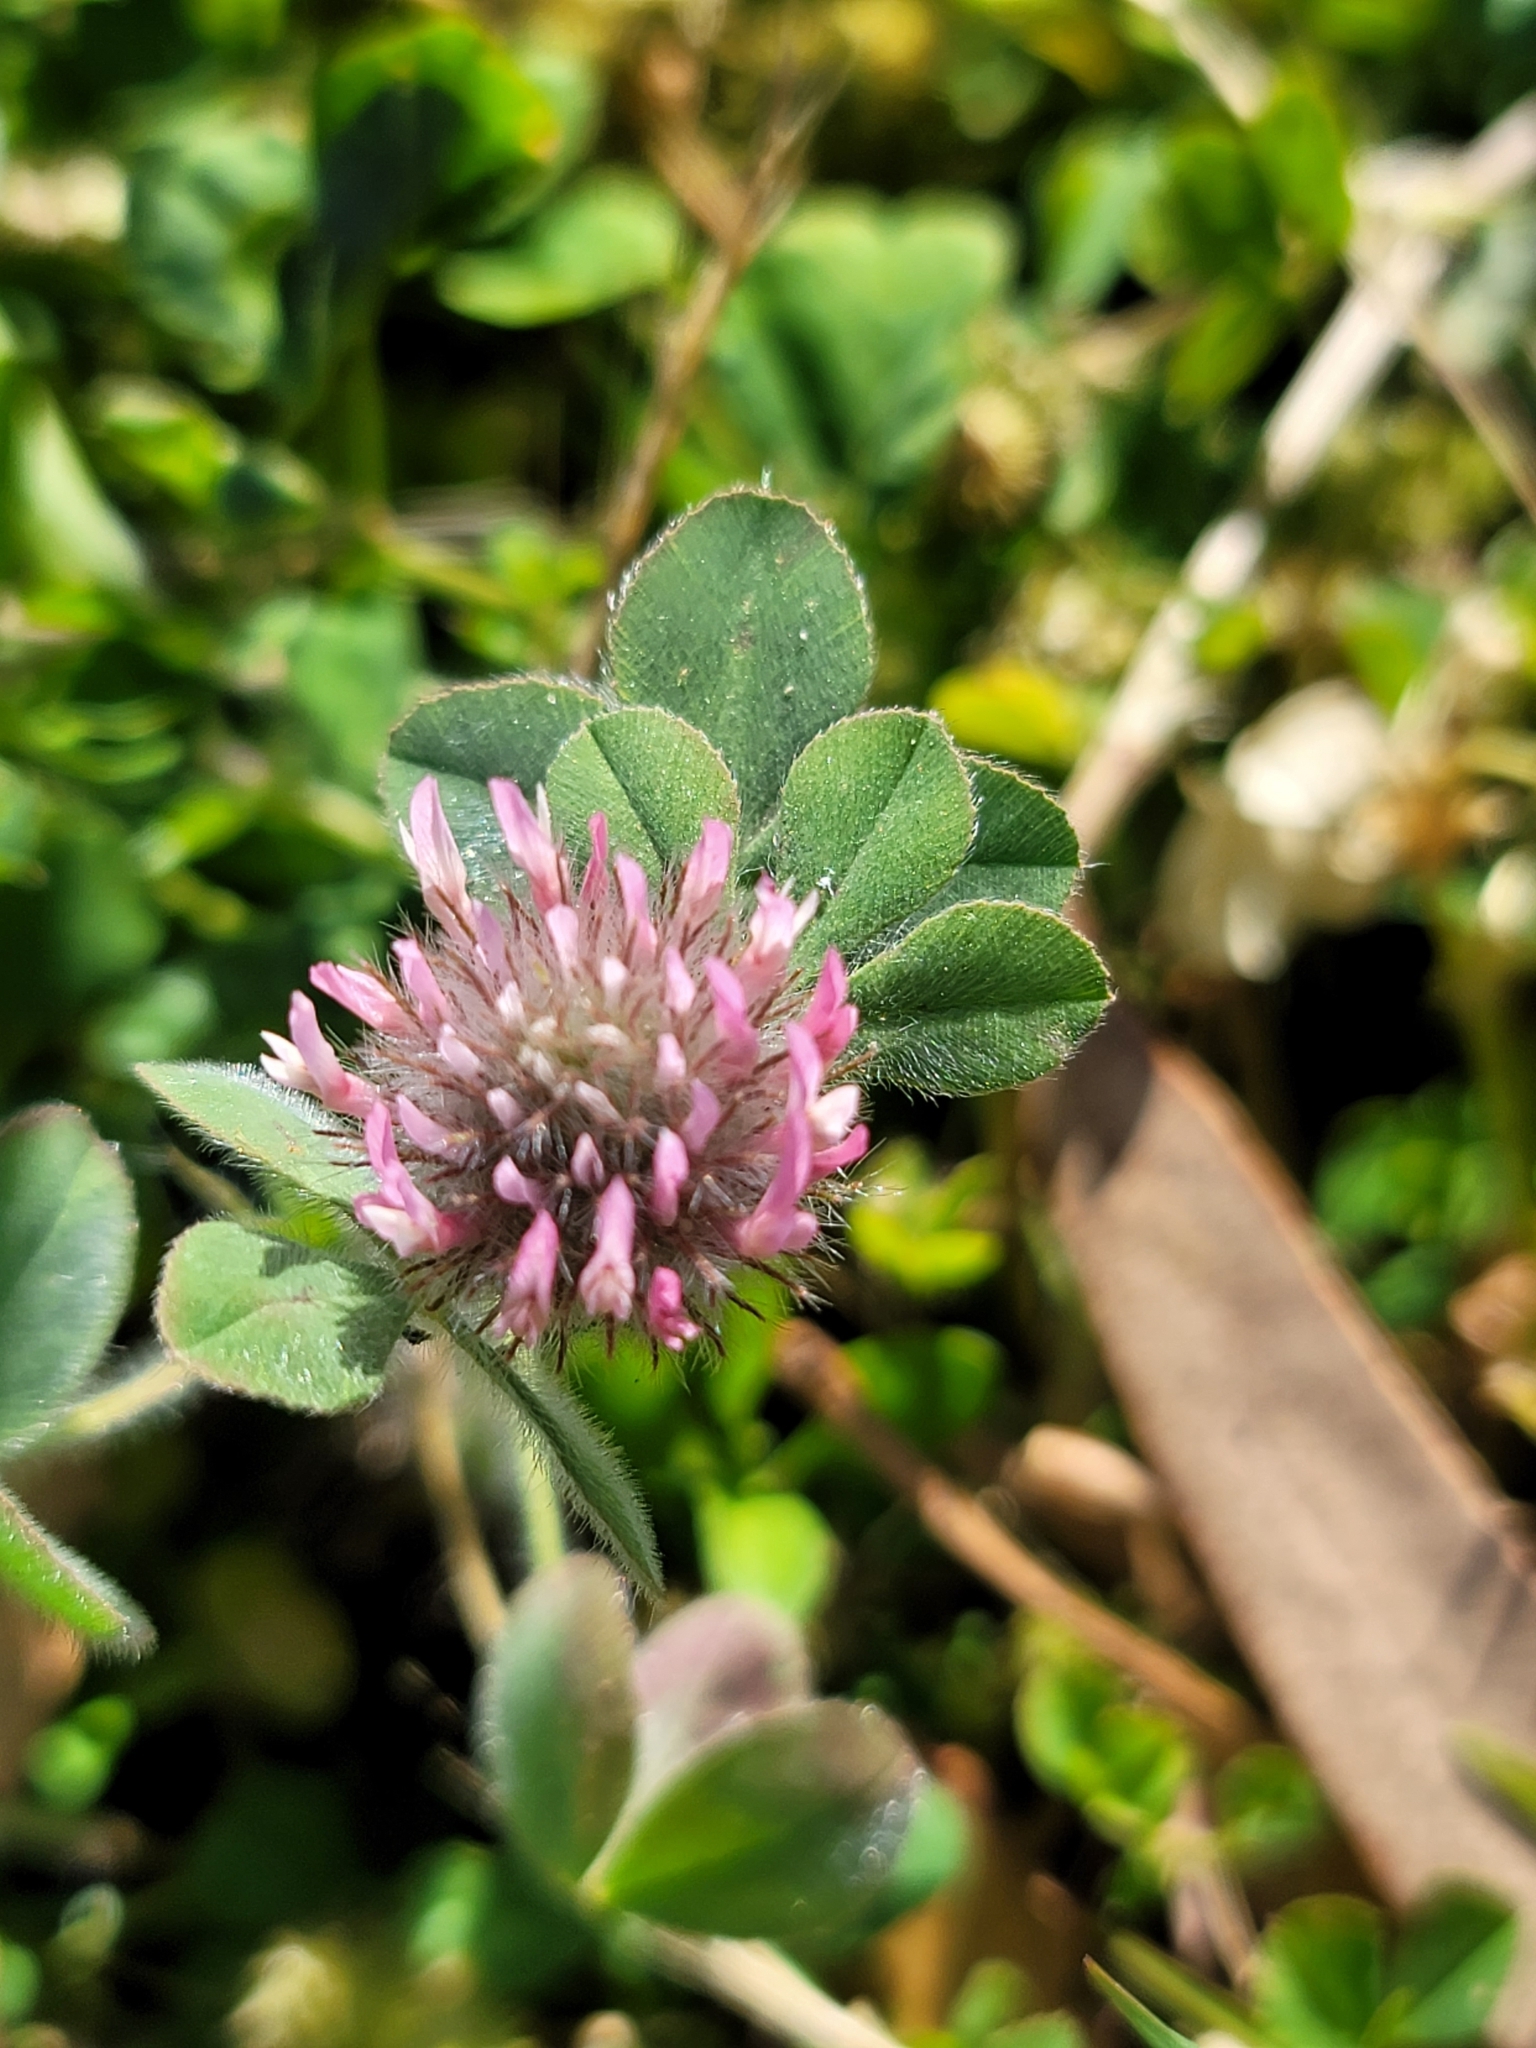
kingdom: Plantae
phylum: Tracheophyta
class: Magnoliopsida
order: Fabales
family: Fabaceae
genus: Trifolium
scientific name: Trifolium hirtum
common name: Rose clover
